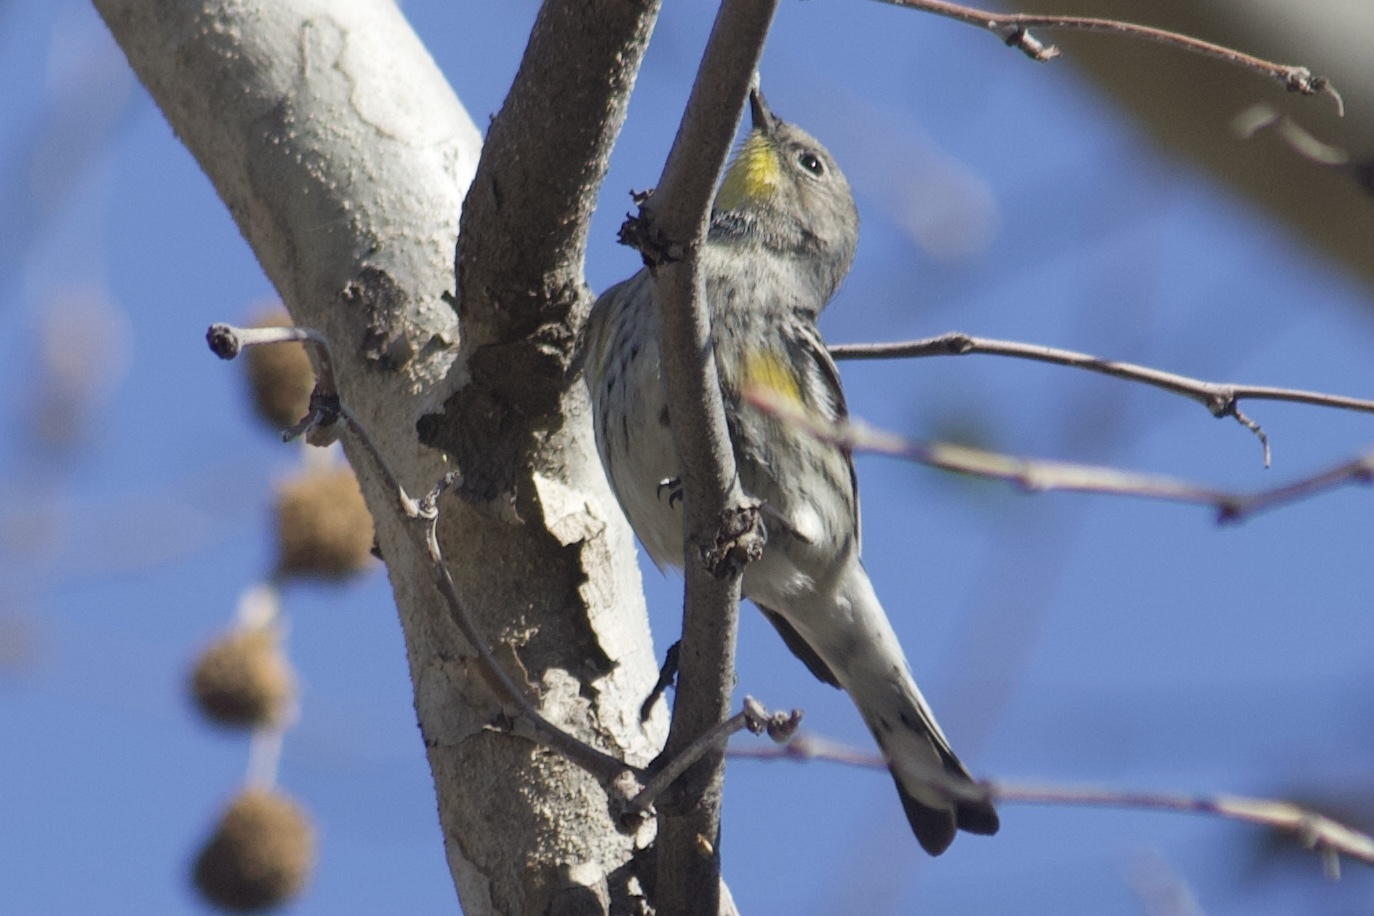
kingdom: Animalia
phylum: Chordata
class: Aves
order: Passeriformes
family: Parulidae
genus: Setophaga
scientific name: Setophaga coronata
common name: Myrtle warbler
